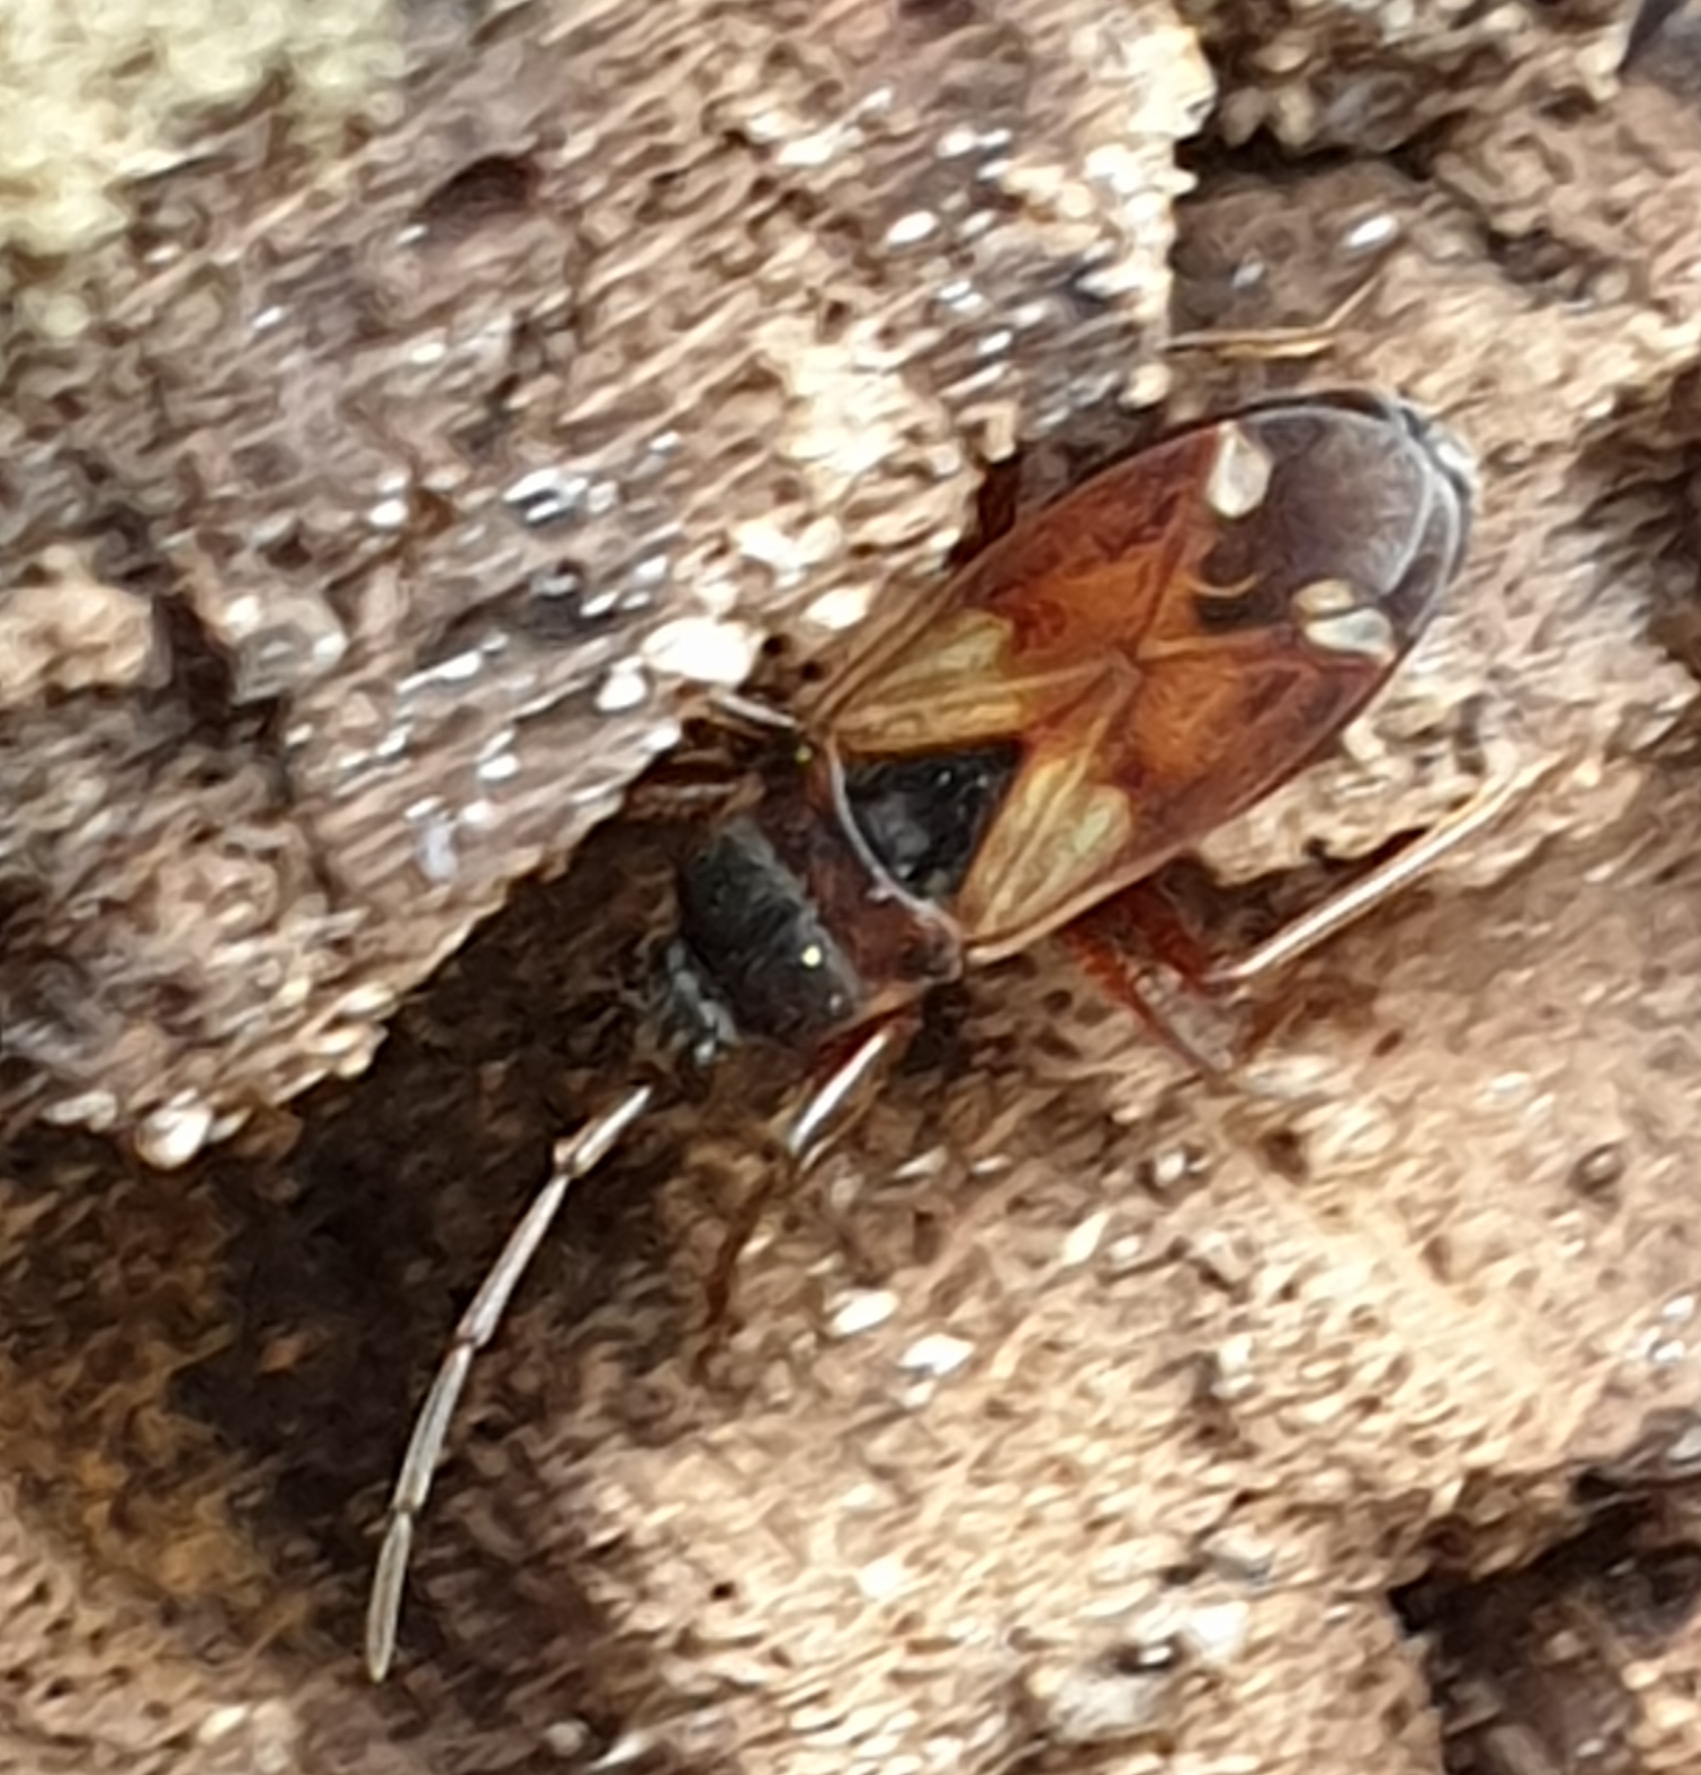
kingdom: Animalia
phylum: Arthropoda
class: Insecta
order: Hemiptera
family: Rhyparochromidae
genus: Eremocoris
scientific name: Eremocoris abietis
